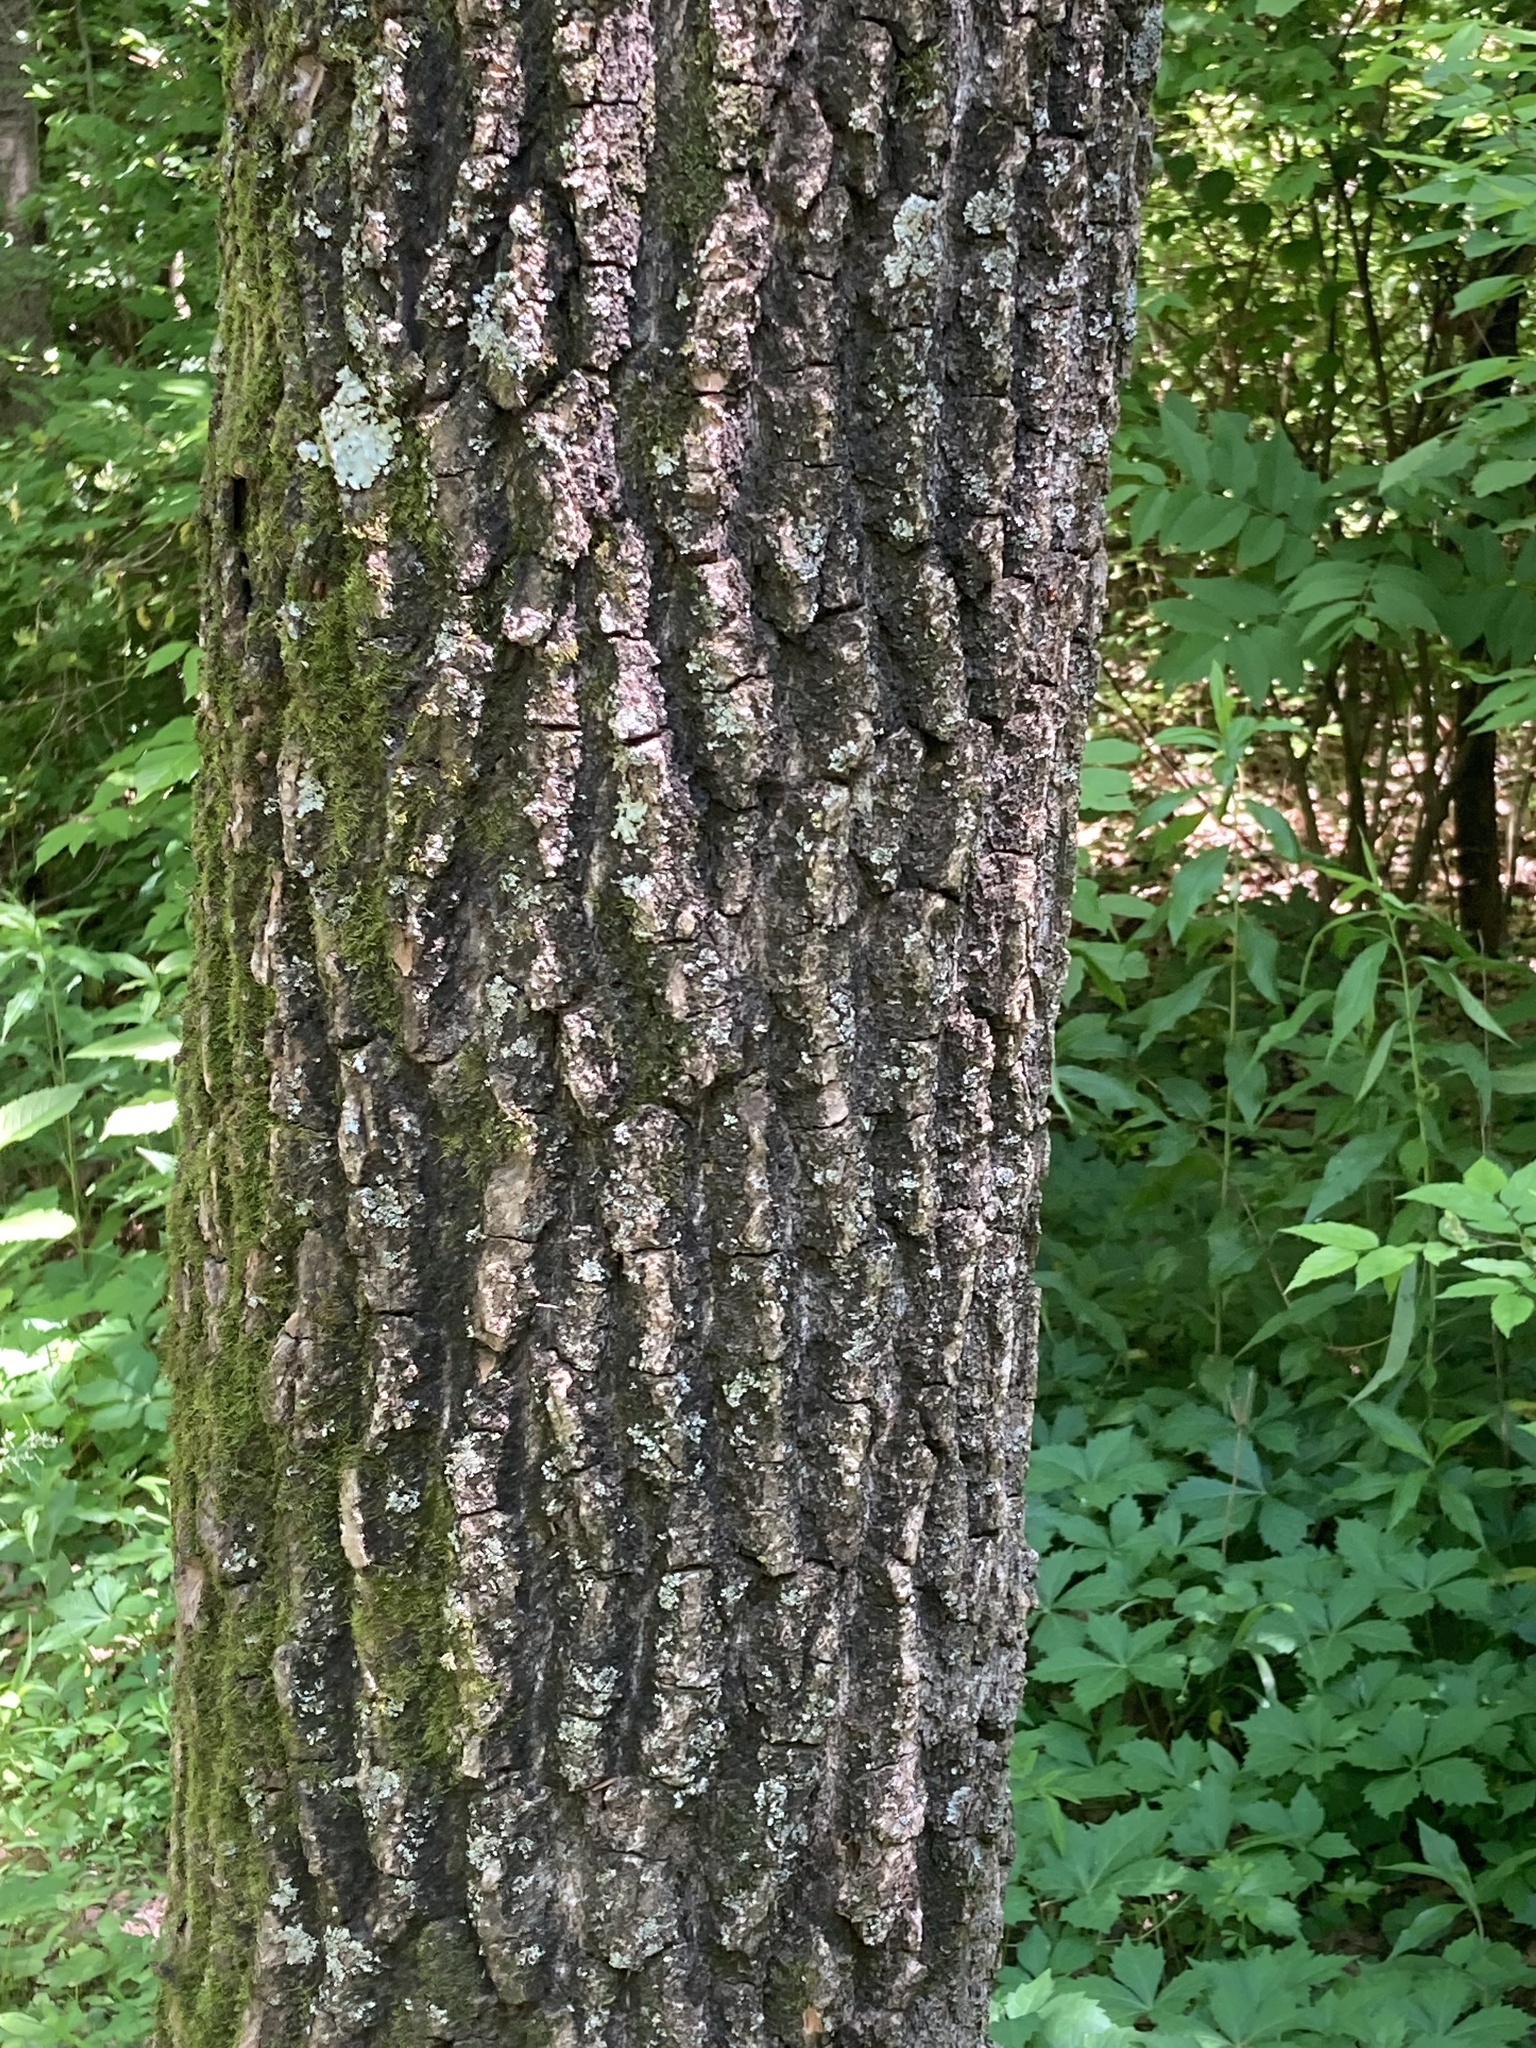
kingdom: Plantae
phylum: Tracheophyta
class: Magnoliopsida
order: Malpighiales
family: Salicaceae
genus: Populus
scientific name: Populus deltoides
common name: Eastern cottonwood
